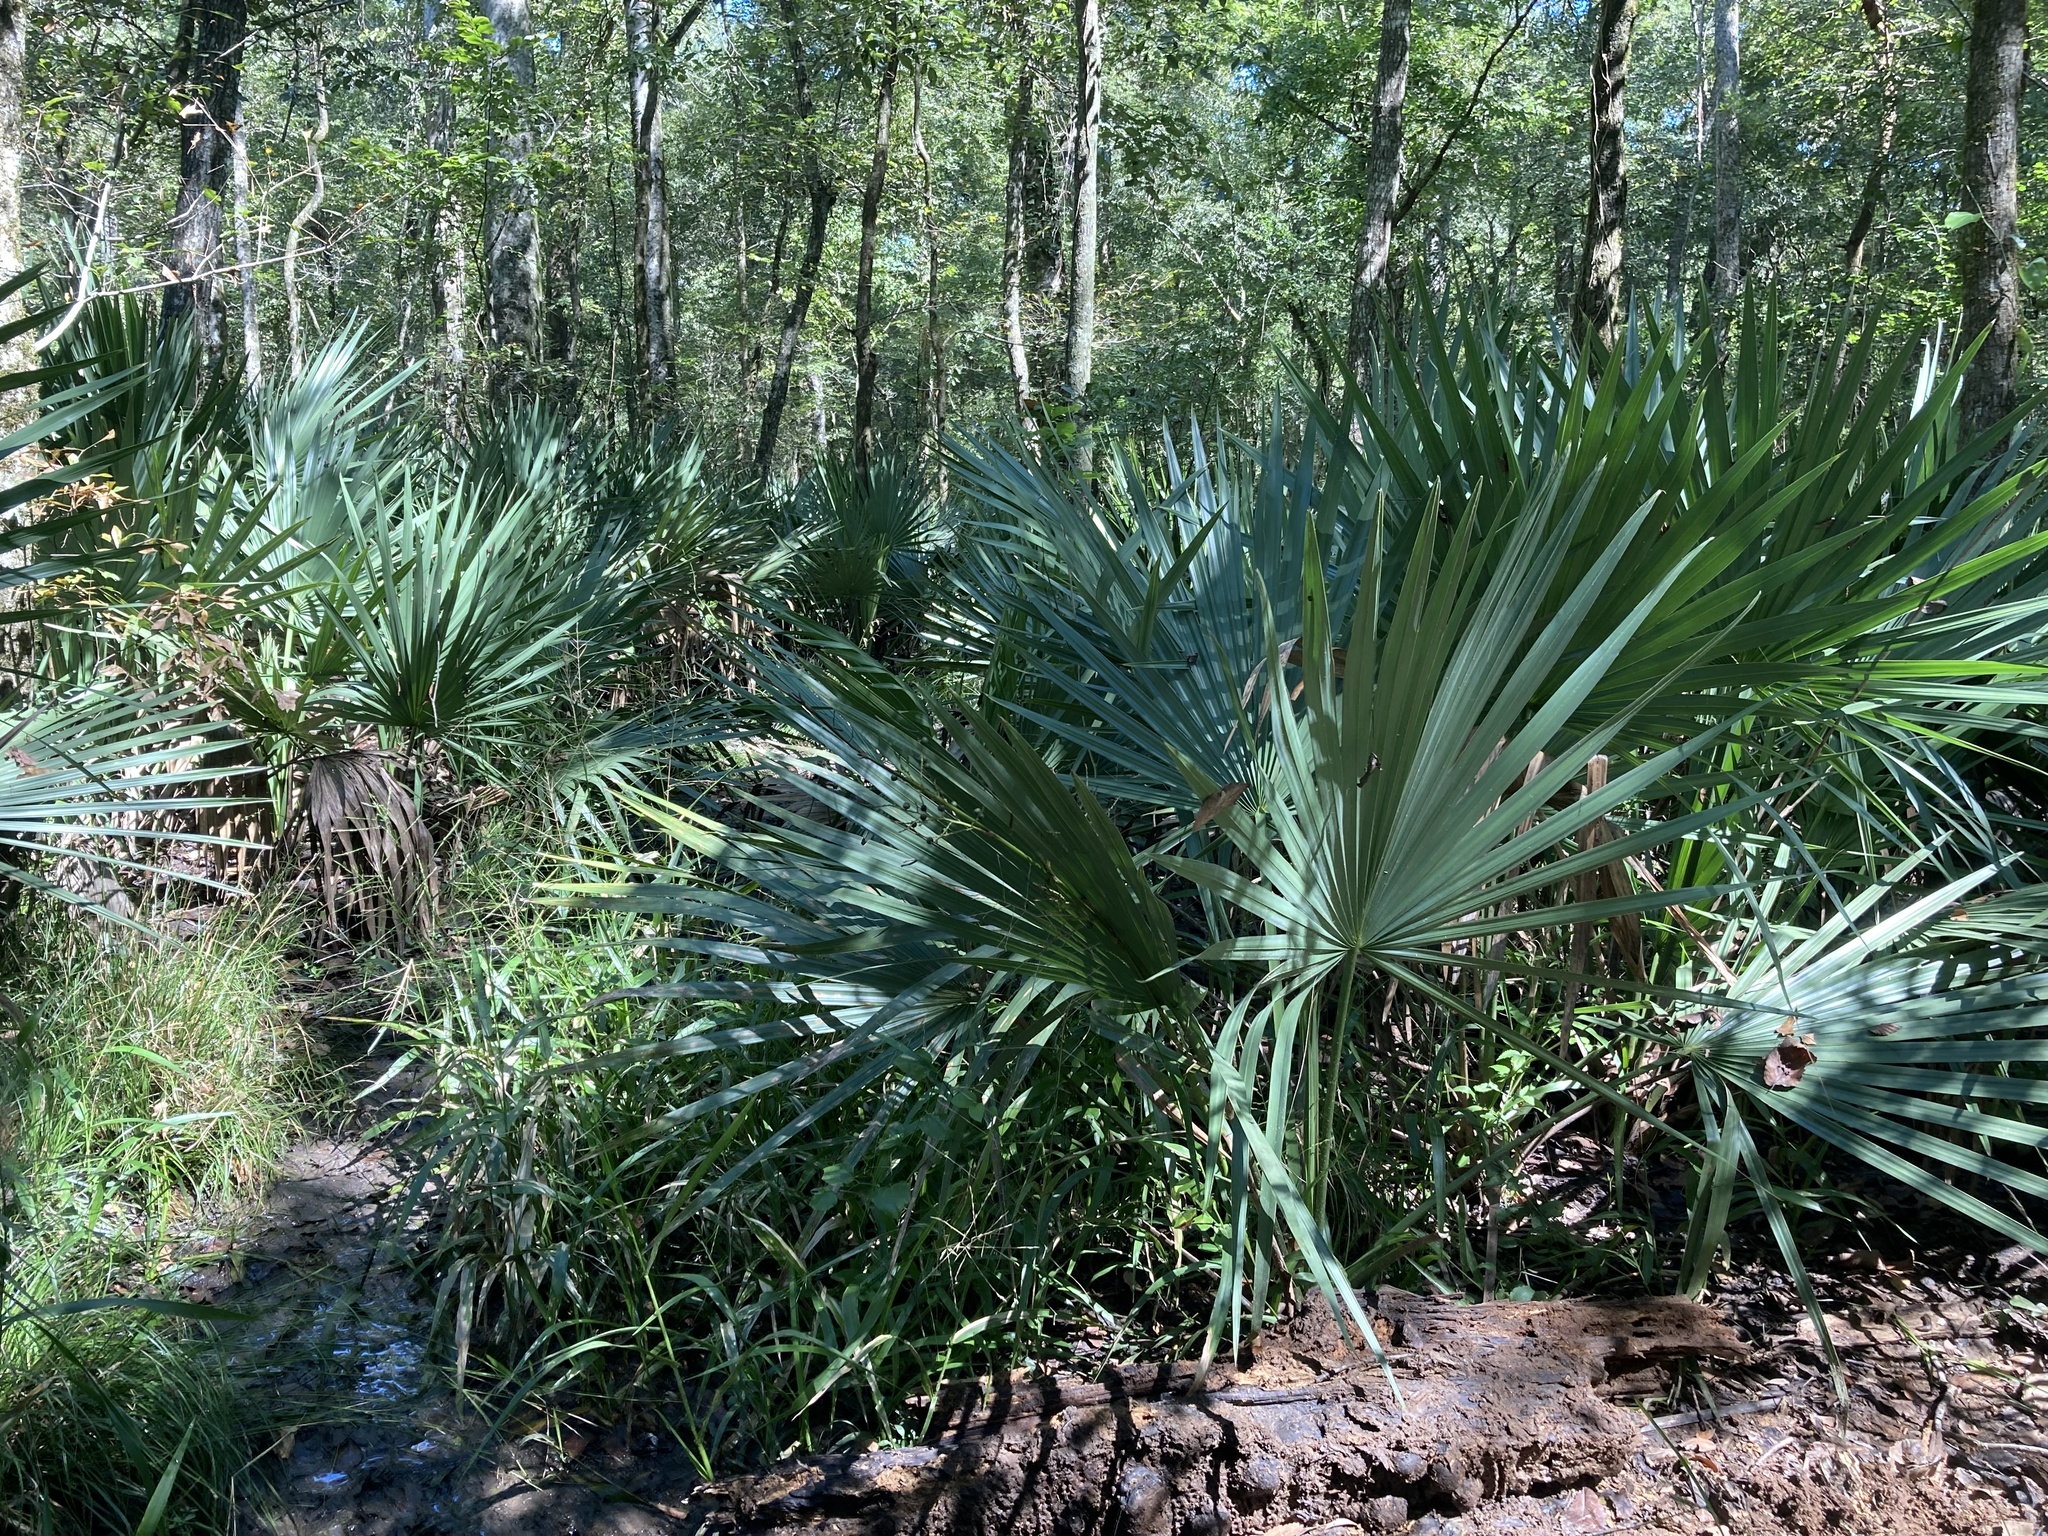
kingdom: Plantae
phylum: Tracheophyta
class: Liliopsida
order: Arecales
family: Arecaceae
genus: Sabal
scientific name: Sabal minor
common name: Dwarf palmetto
